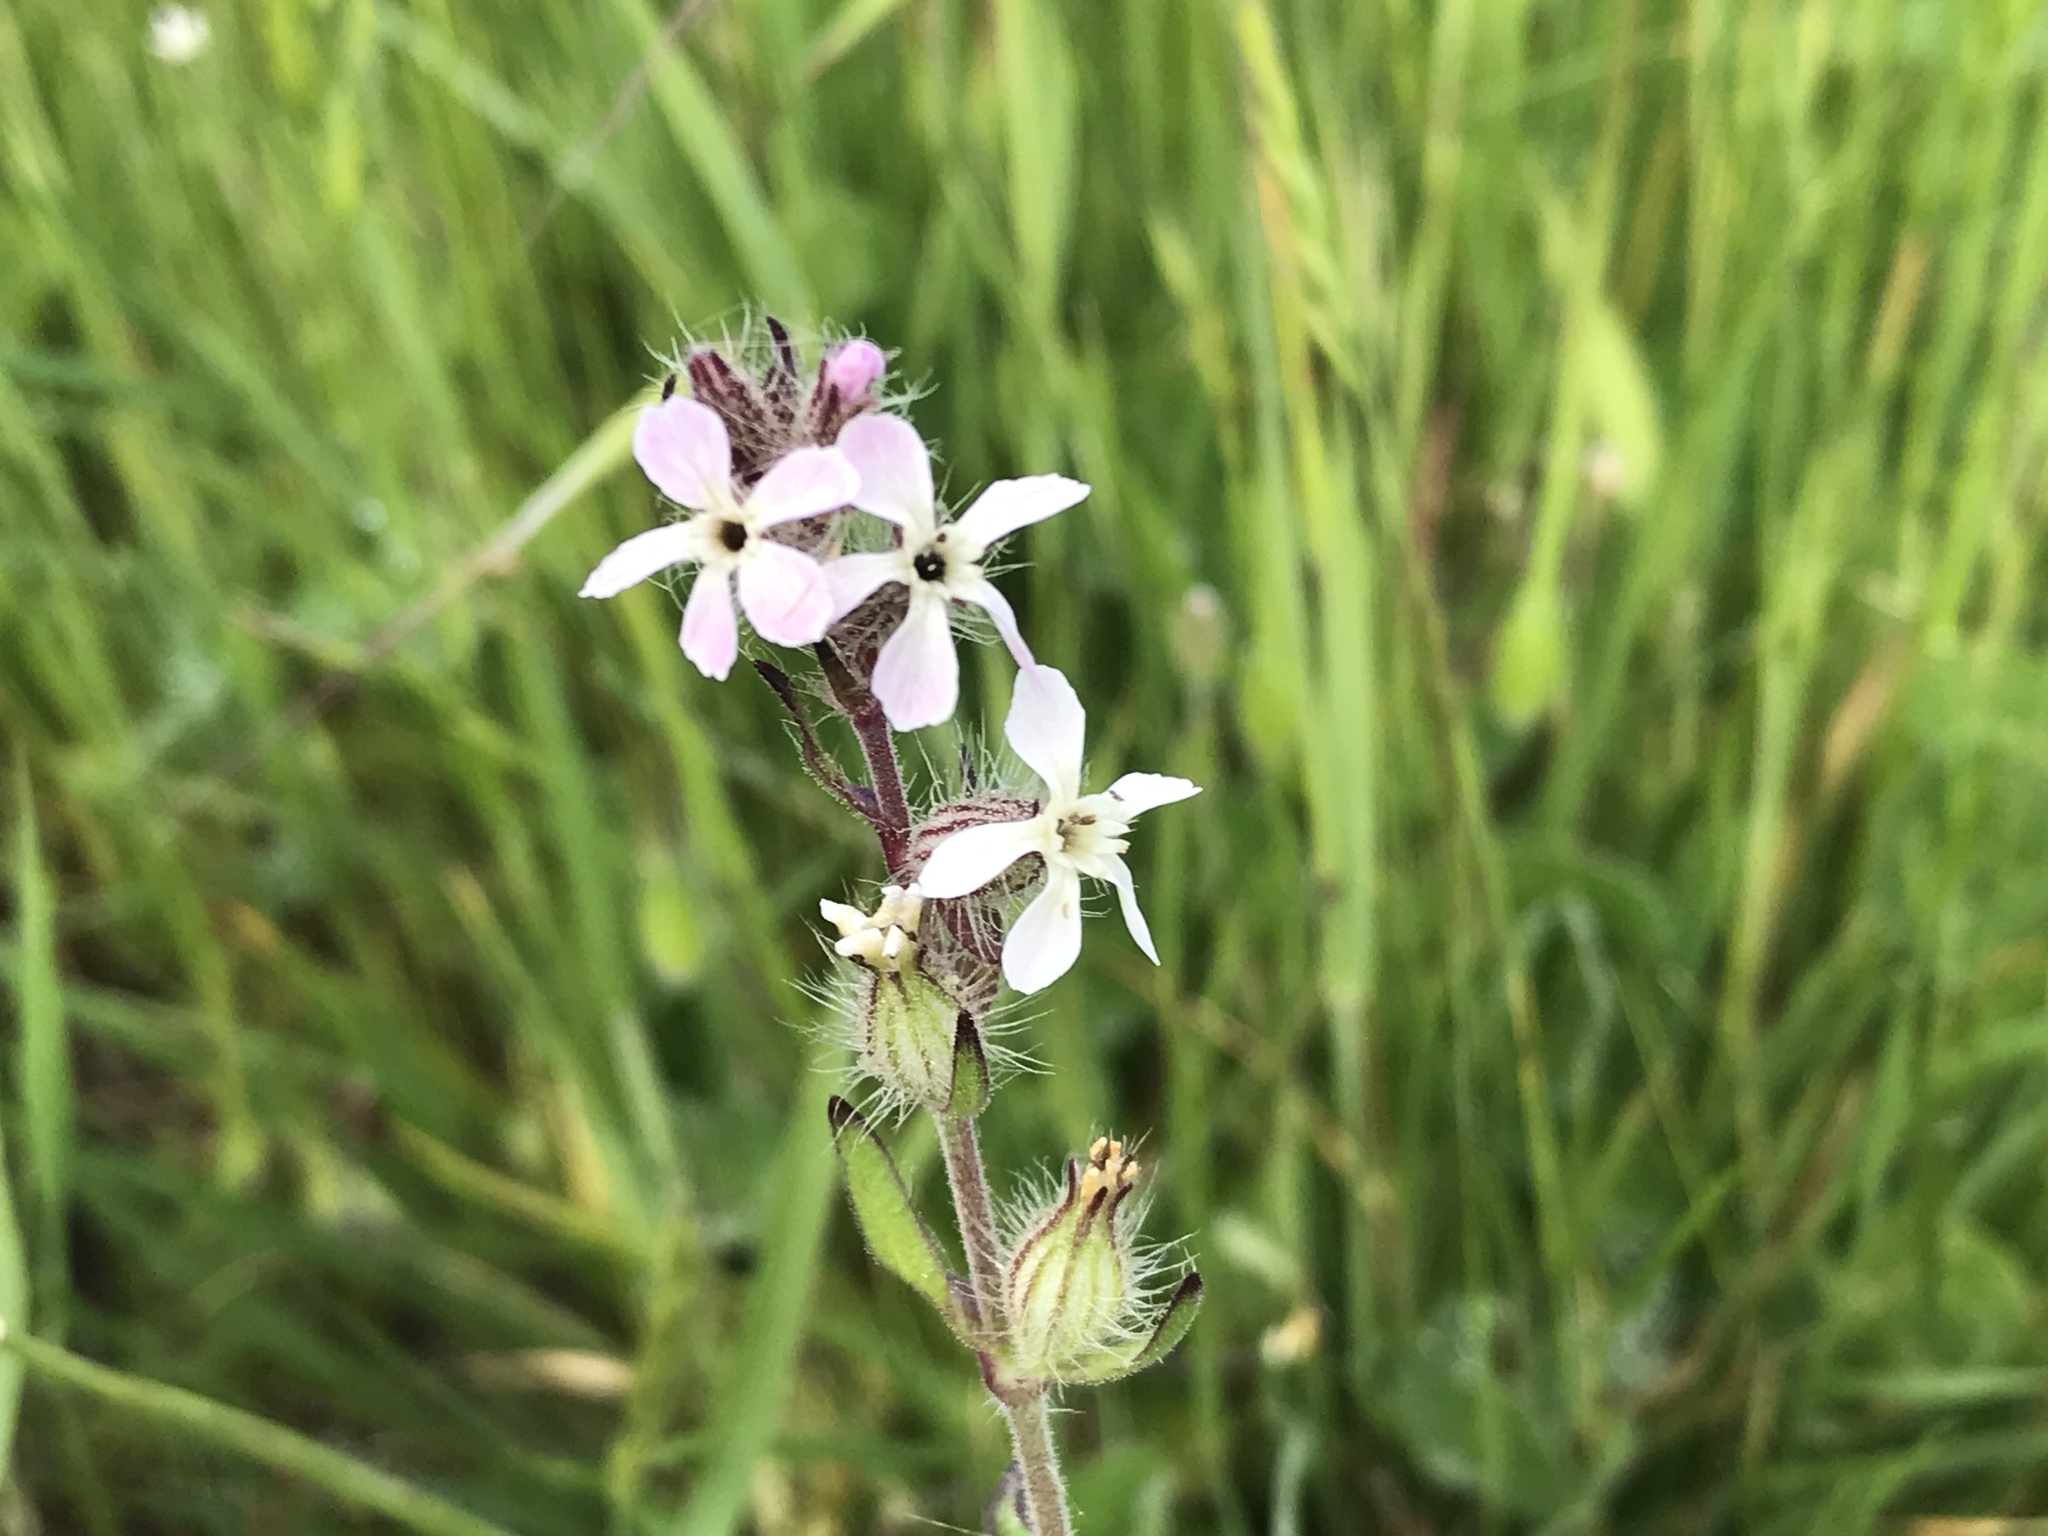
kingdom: Plantae
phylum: Tracheophyta
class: Magnoliopsida
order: Caryophyllales
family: Caryophyllaceae
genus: Silene
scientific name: Silene gallica
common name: Small-flowered catchfly
